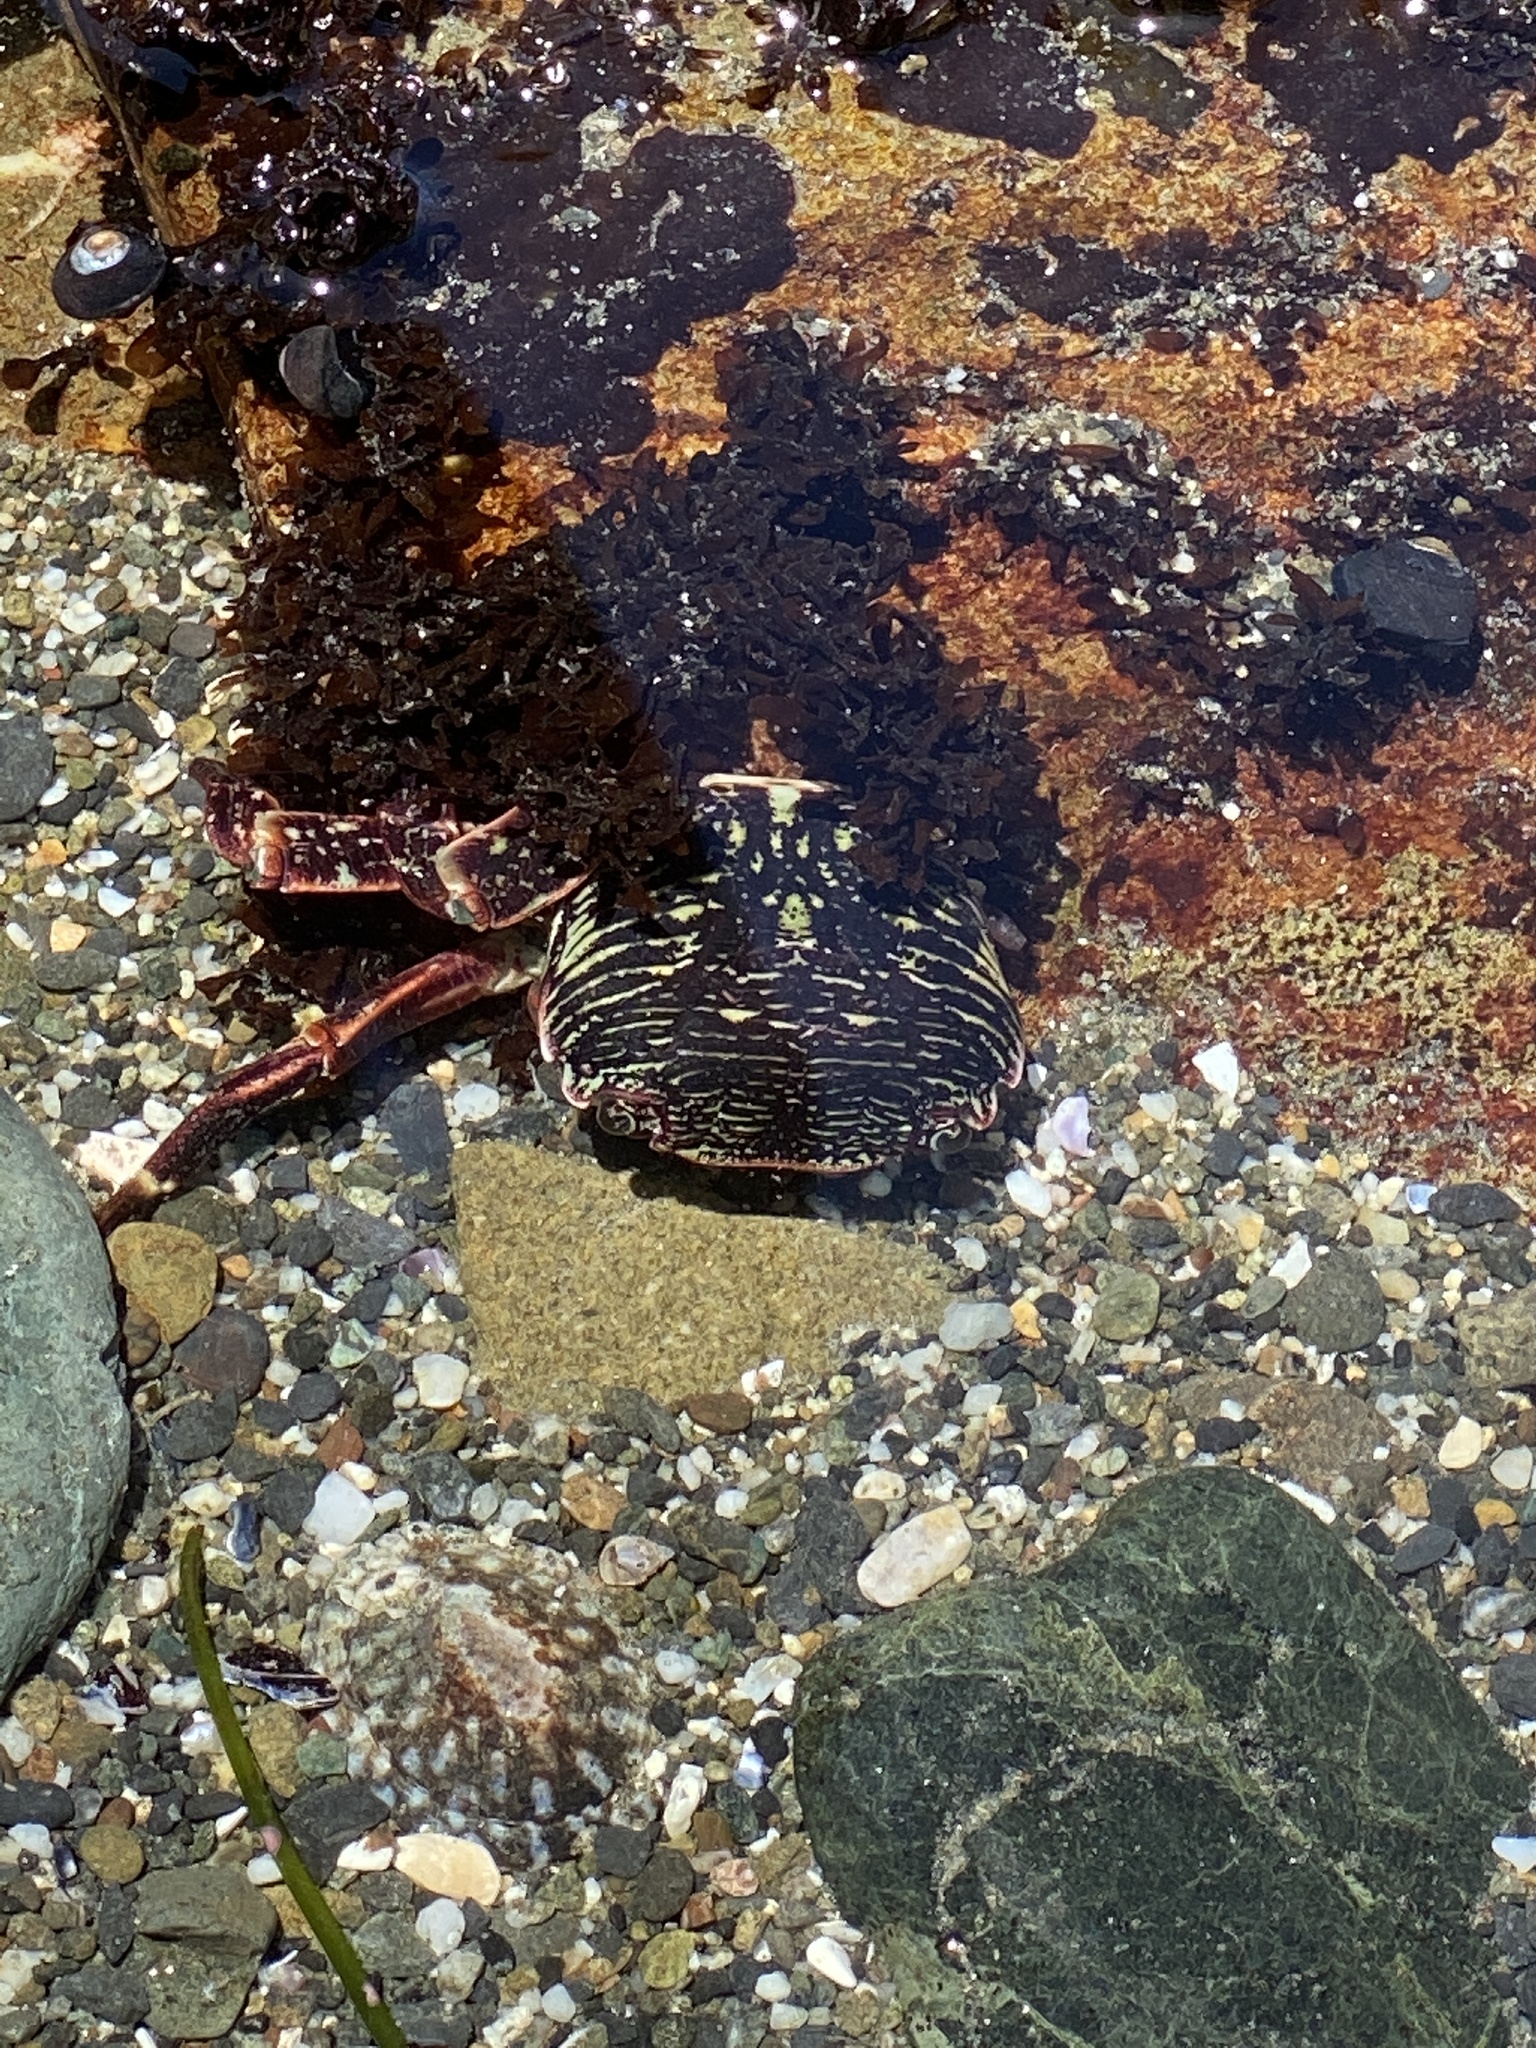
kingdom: Animalia
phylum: Arthropoda
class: Malacostraca
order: Decapoda
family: Grapsidae
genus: Pachygrapsus
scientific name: Pachygrapsus crassipes
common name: Striped shore crab
